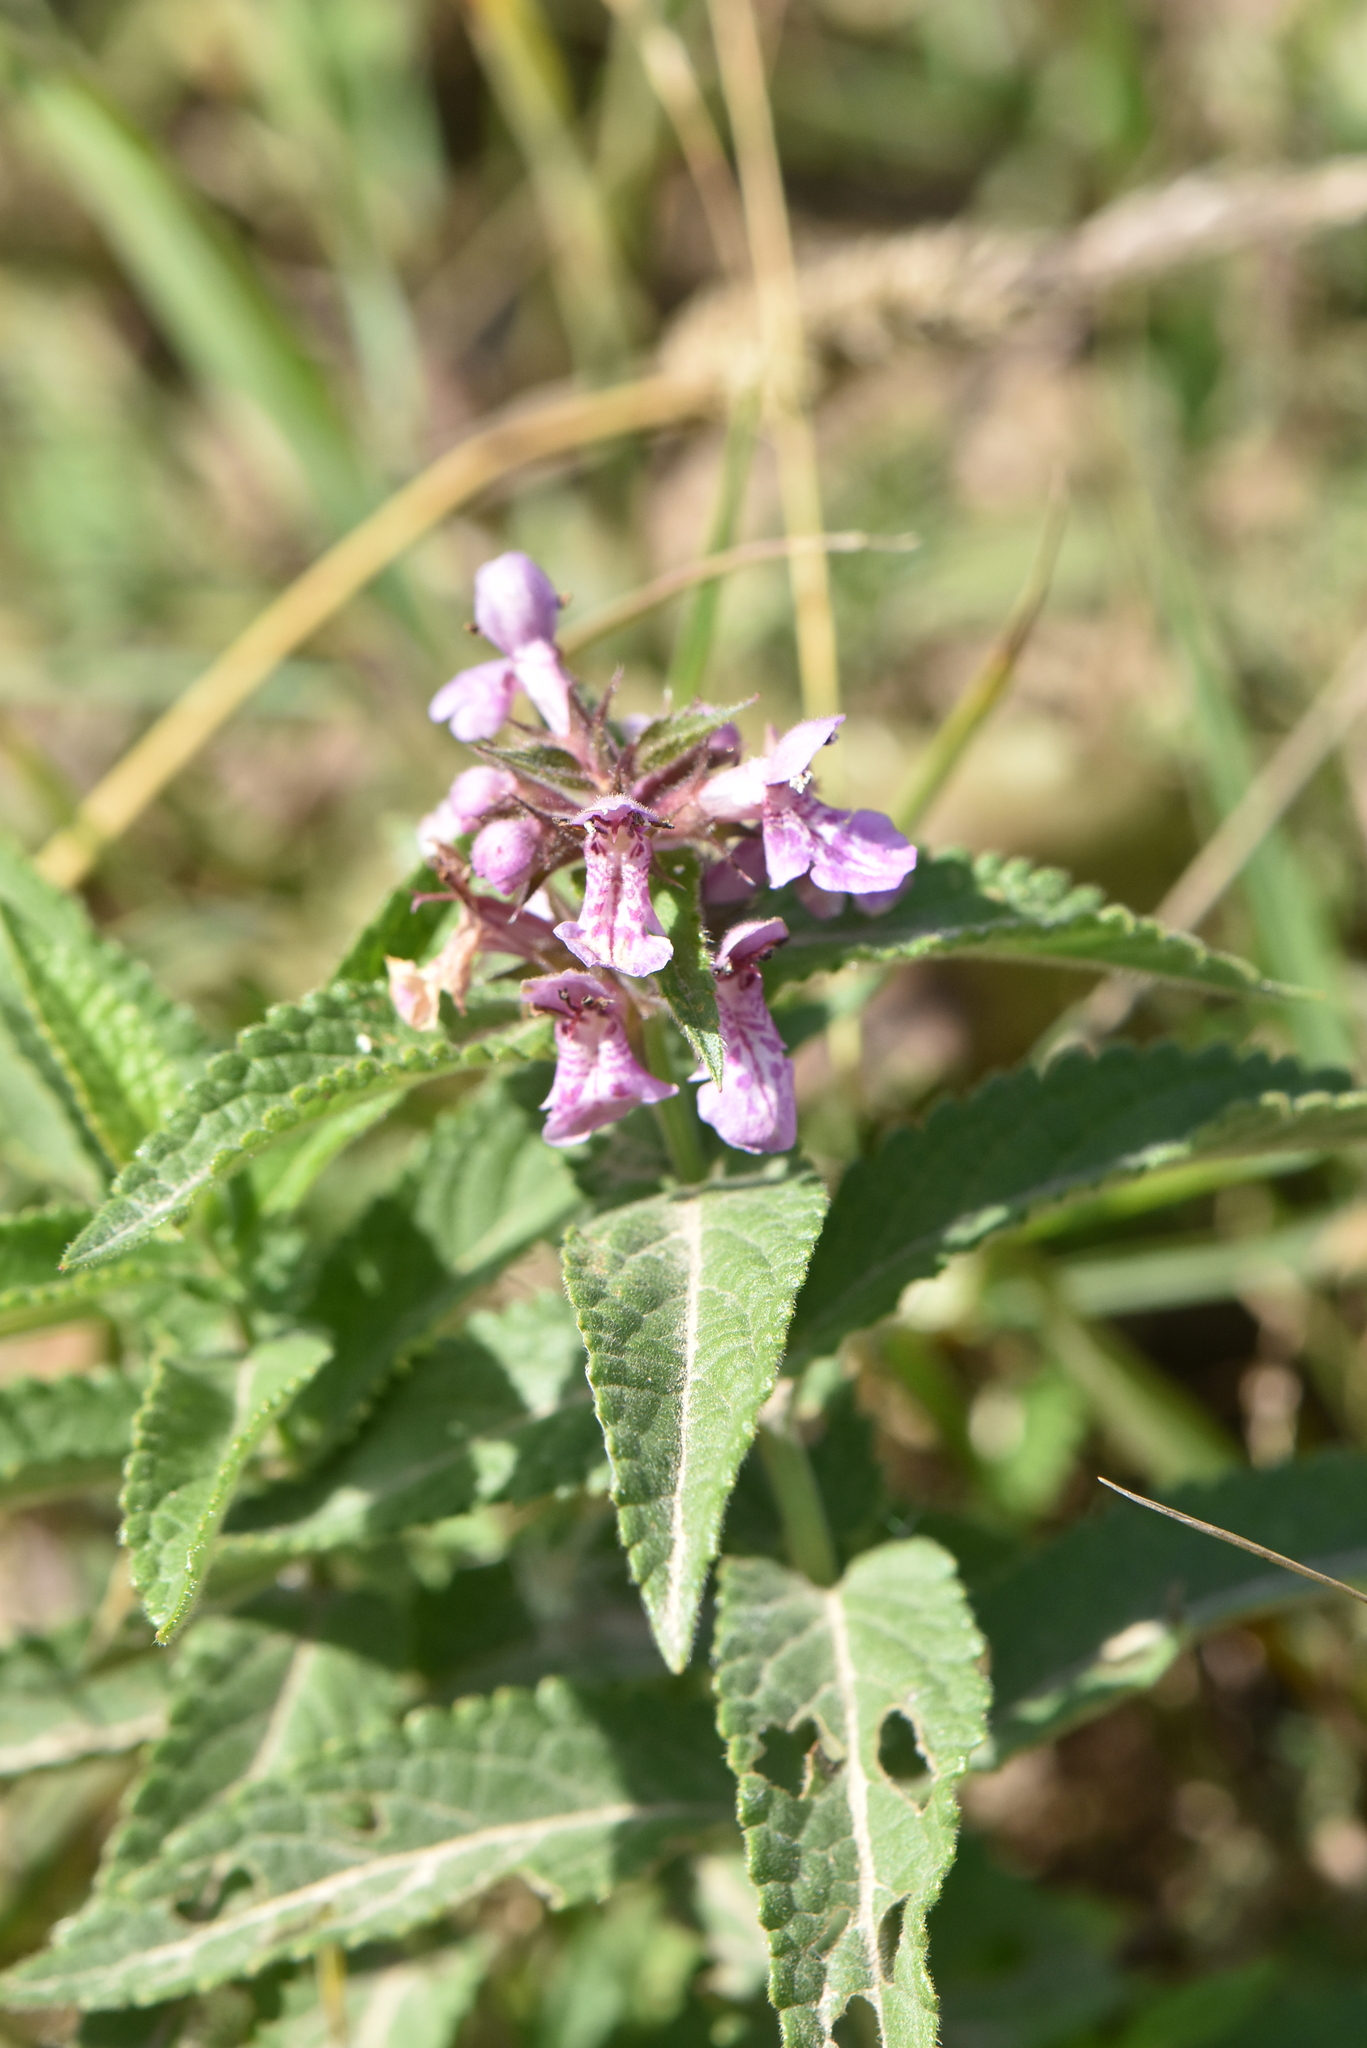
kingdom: Plantae
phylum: Tracheophyta
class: Magnoliopsida
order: Lamiales
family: Lamiaceae
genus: Stachys
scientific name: Stachys palustris
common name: Marsh woundwort
